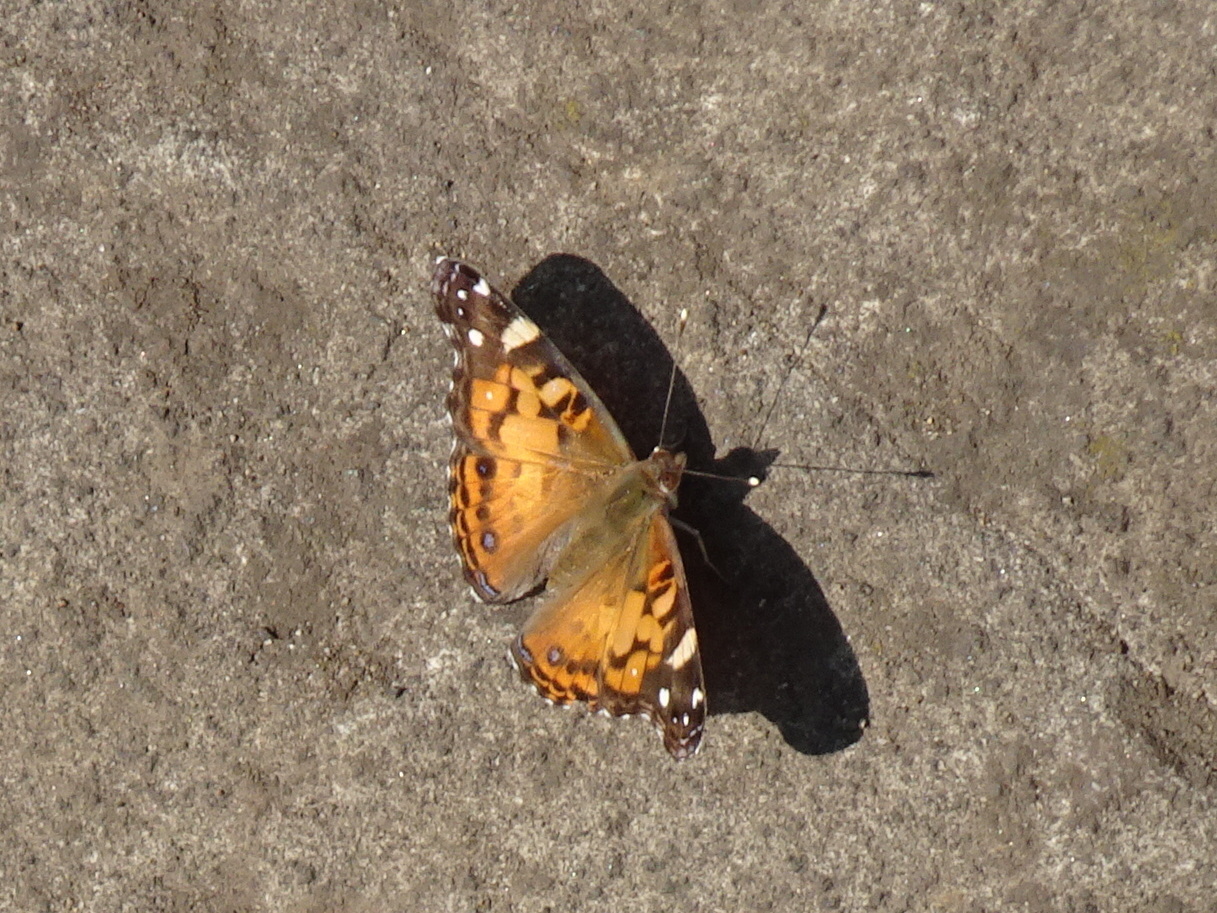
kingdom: Animalia
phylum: Arthropoda
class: Insecta
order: Lepidoptera
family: Nymphalidae
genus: Vanessa
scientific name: Vanessa virginiensis
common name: American lady
